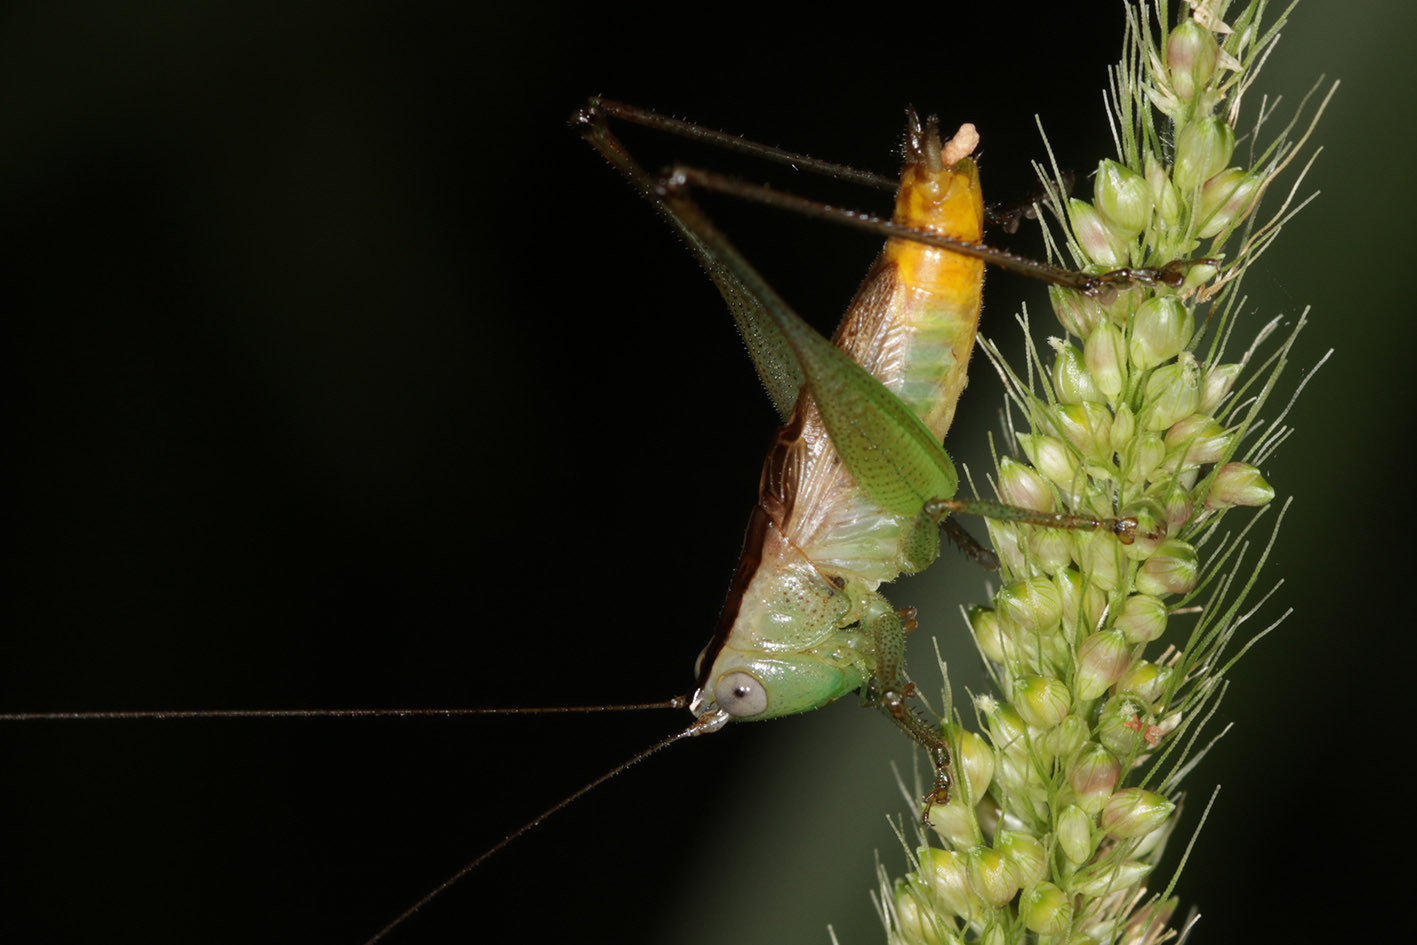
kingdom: Animalia
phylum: Arthropoda
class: Insecta
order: Orthoptera
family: Tettigoniidae
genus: Conocephalus
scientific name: Conocephalus saltator
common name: Katydid
